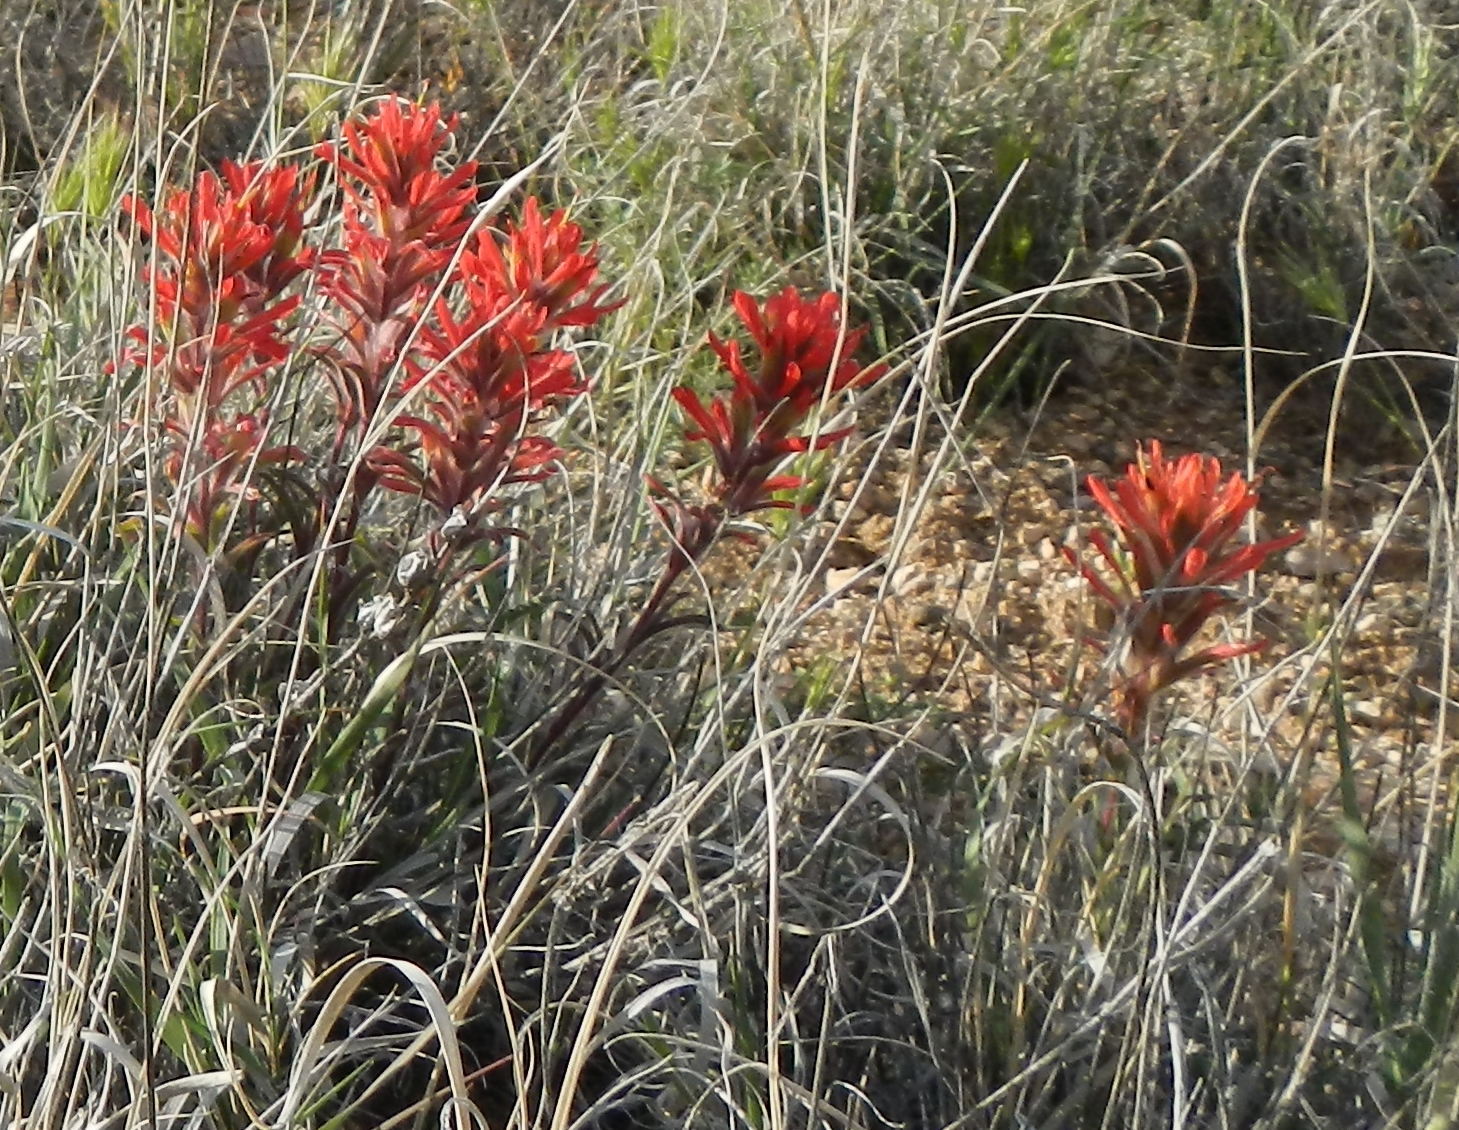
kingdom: Plantae
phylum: Tracheophyta
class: Magnoliopsida
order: Lamiales
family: Orobanchaceae
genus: Castilleja
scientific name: Castilleja chromosa
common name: Desert paintbrush
